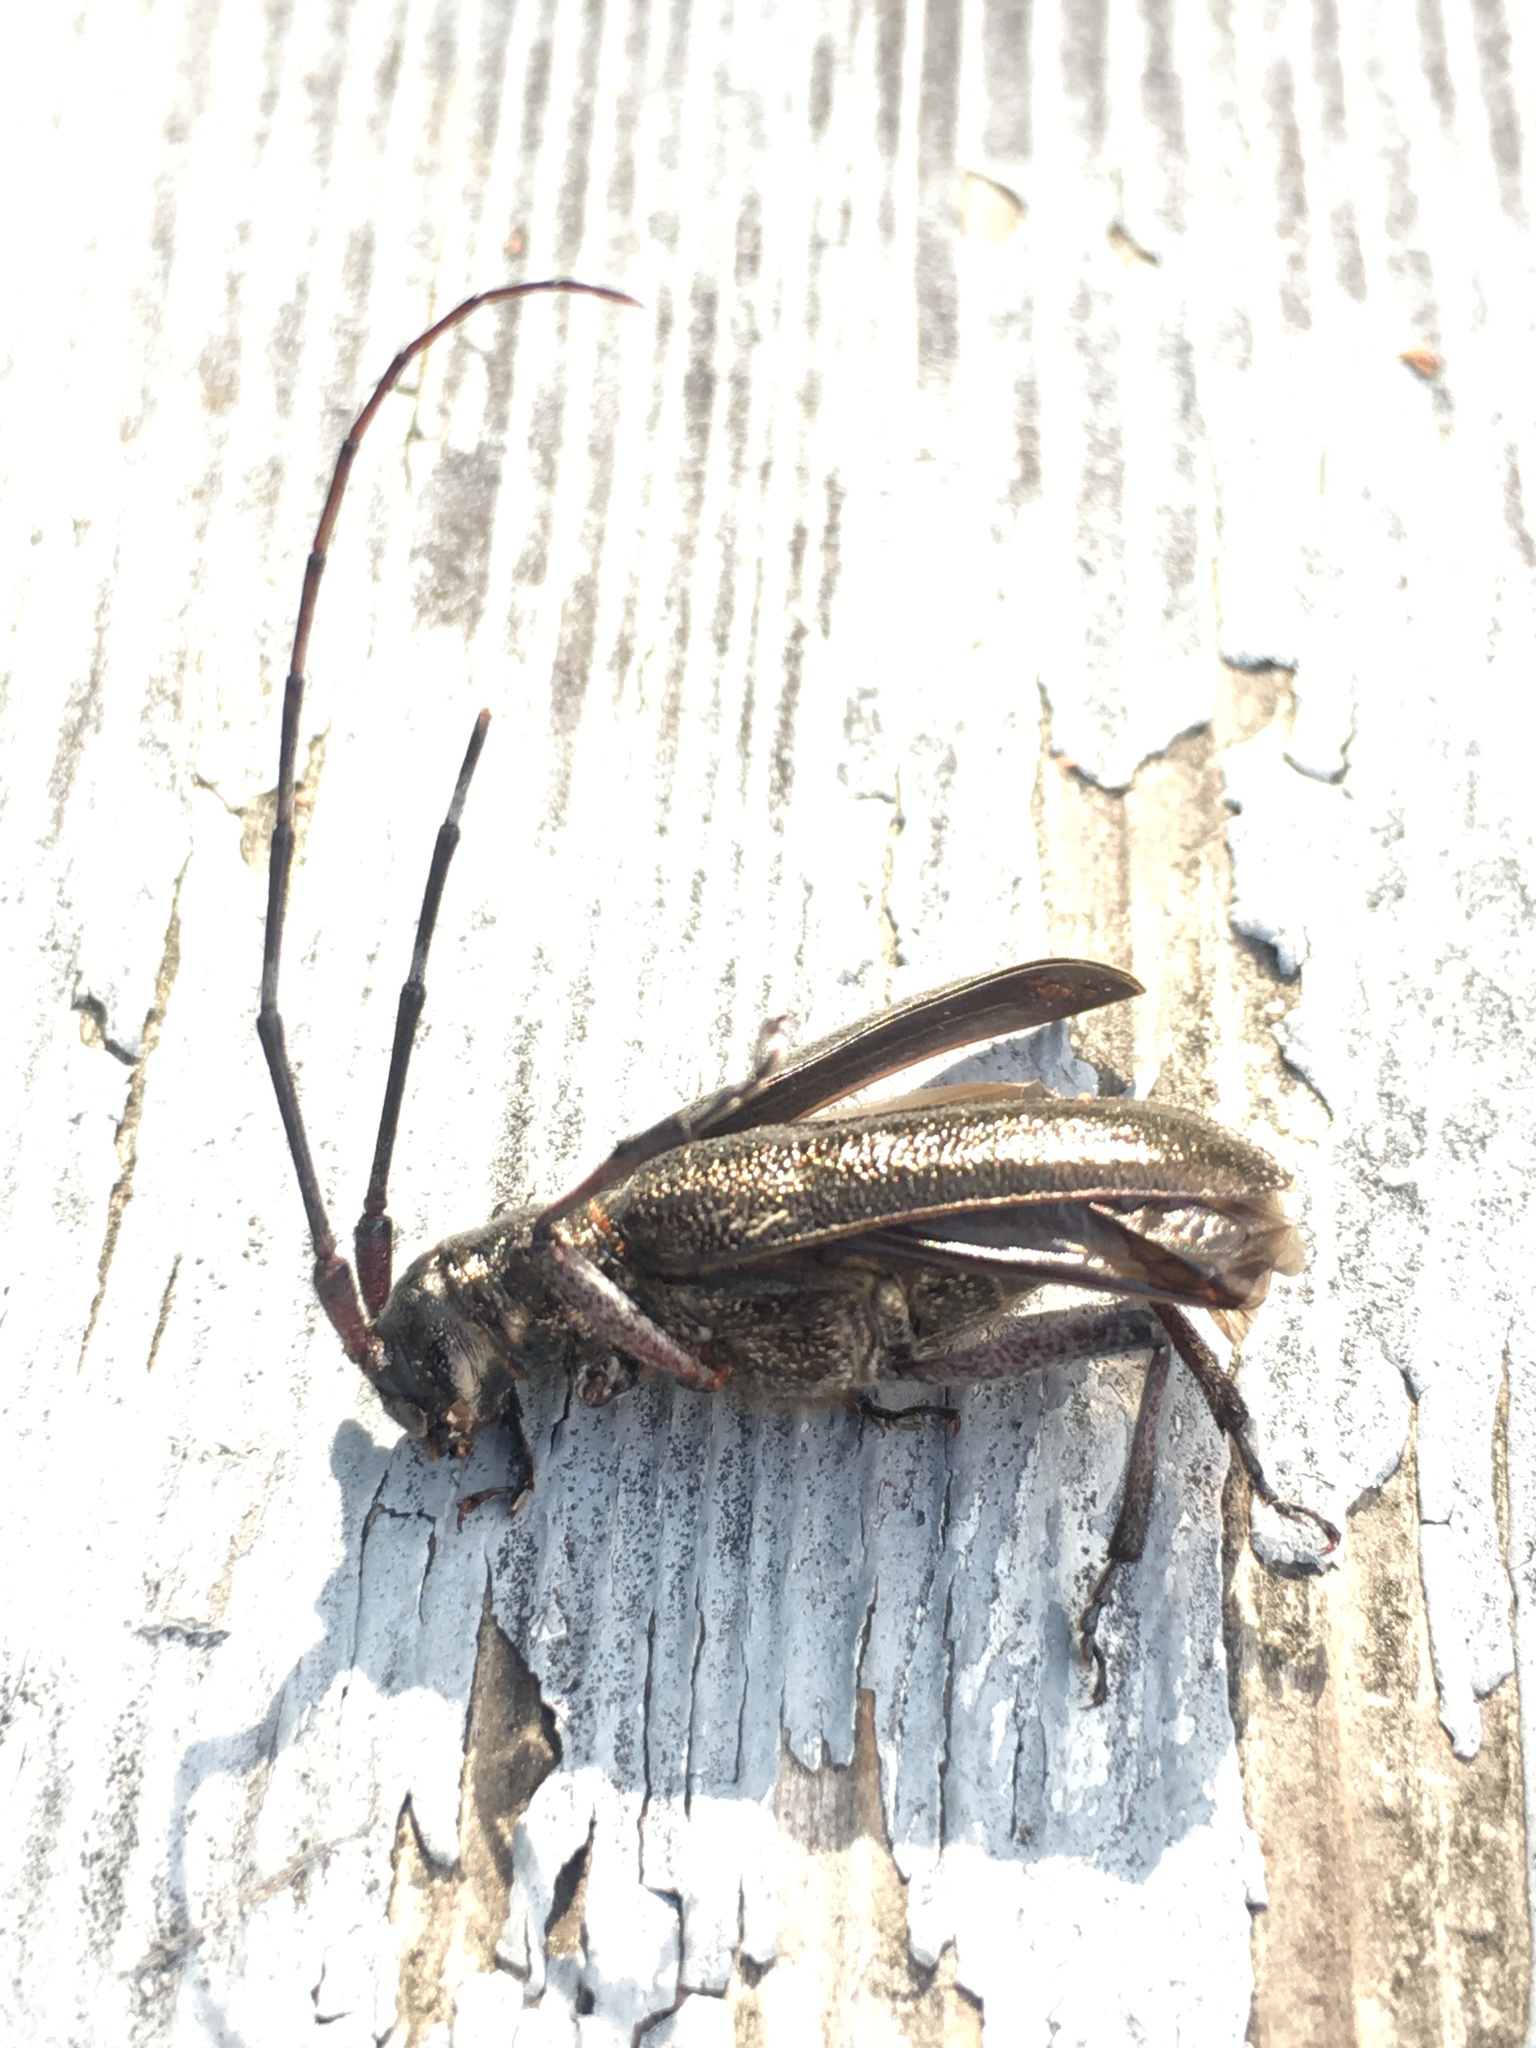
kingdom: Animalia
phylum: Arthropoda
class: Insecta
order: Coleoptera
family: Cerambycidae
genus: Monochamus
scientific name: Monochamus scutellatus
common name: White-spotted sawyer beetle
